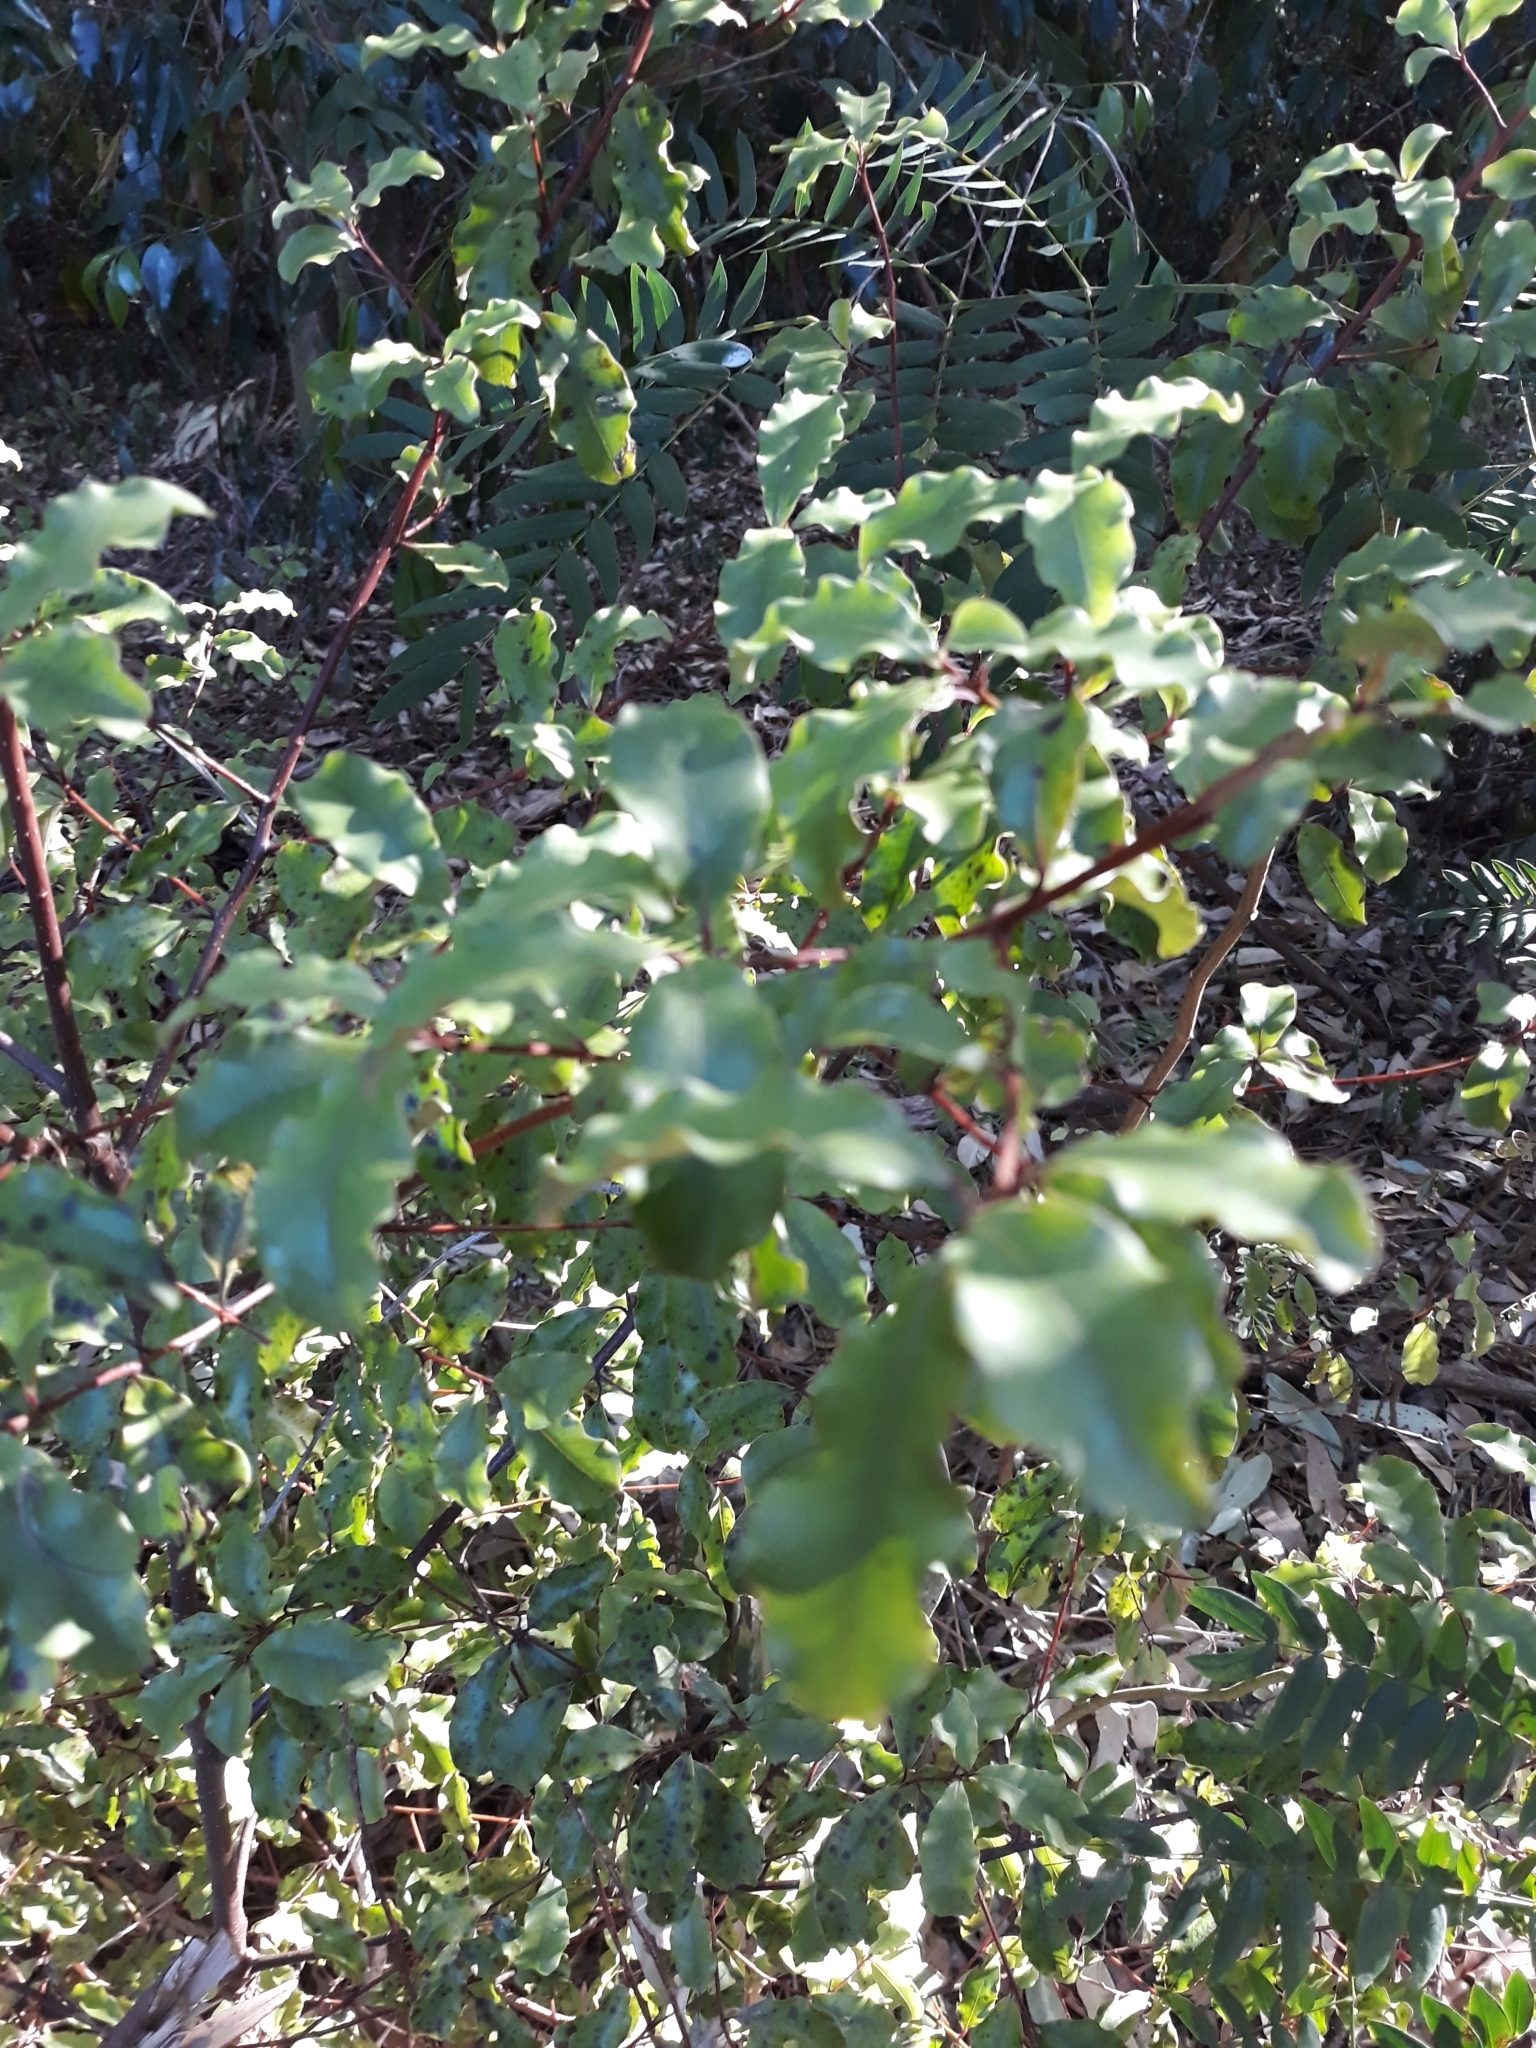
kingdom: Plantae
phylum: Tracheophyta
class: Magnoliopsida
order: Ericales
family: Primulaceae
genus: Myrsine
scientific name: Myrsine australis
